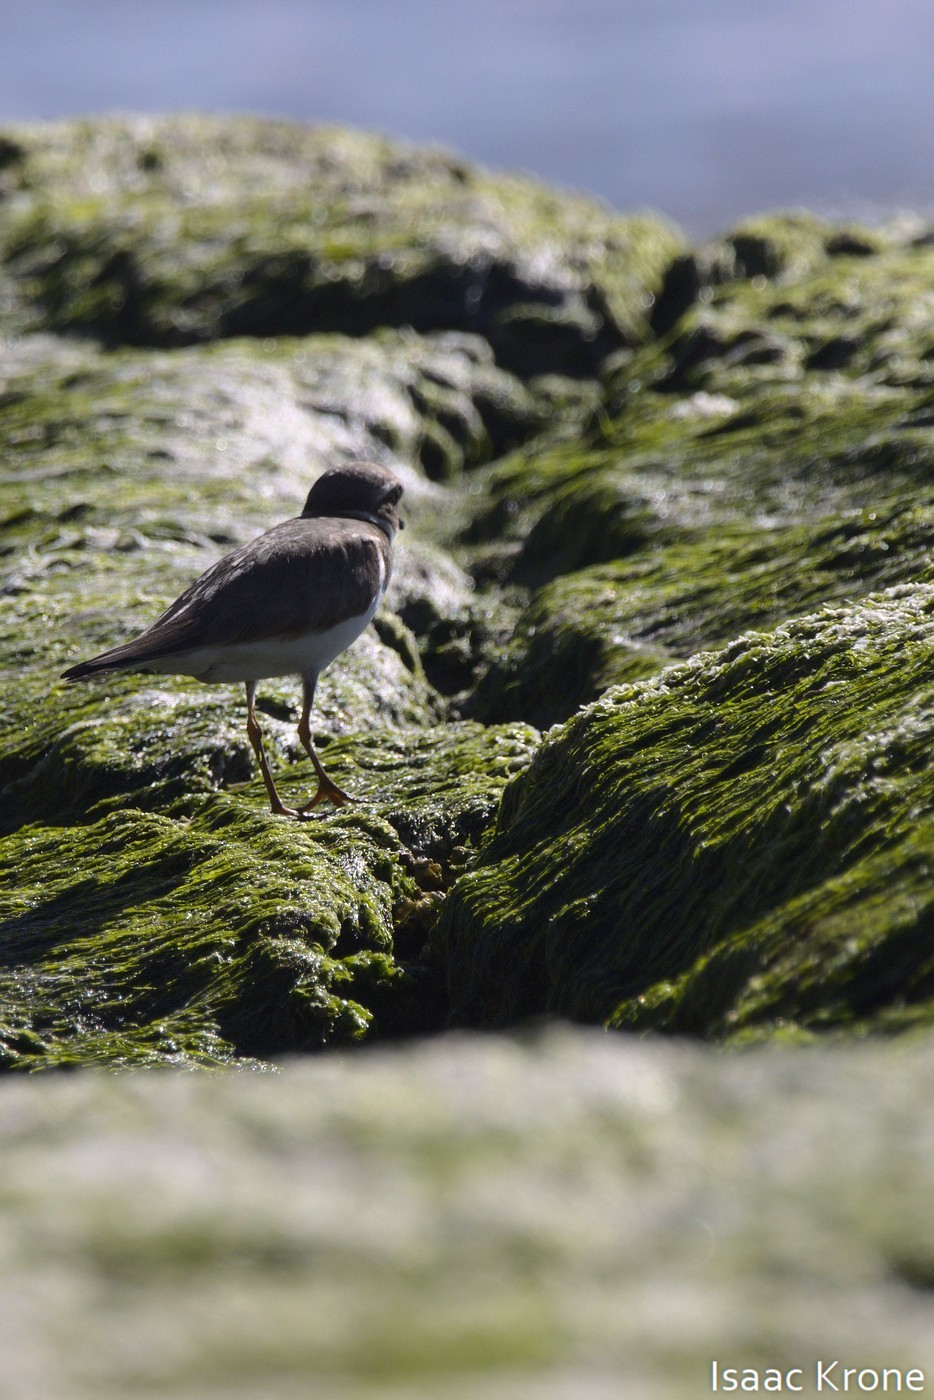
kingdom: Animalia
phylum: Chordata
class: Aves
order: Charadriiformes
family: Charadriidae
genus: Charadrius
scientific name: Charadrius semipalmatus
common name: Semipalmated plover
